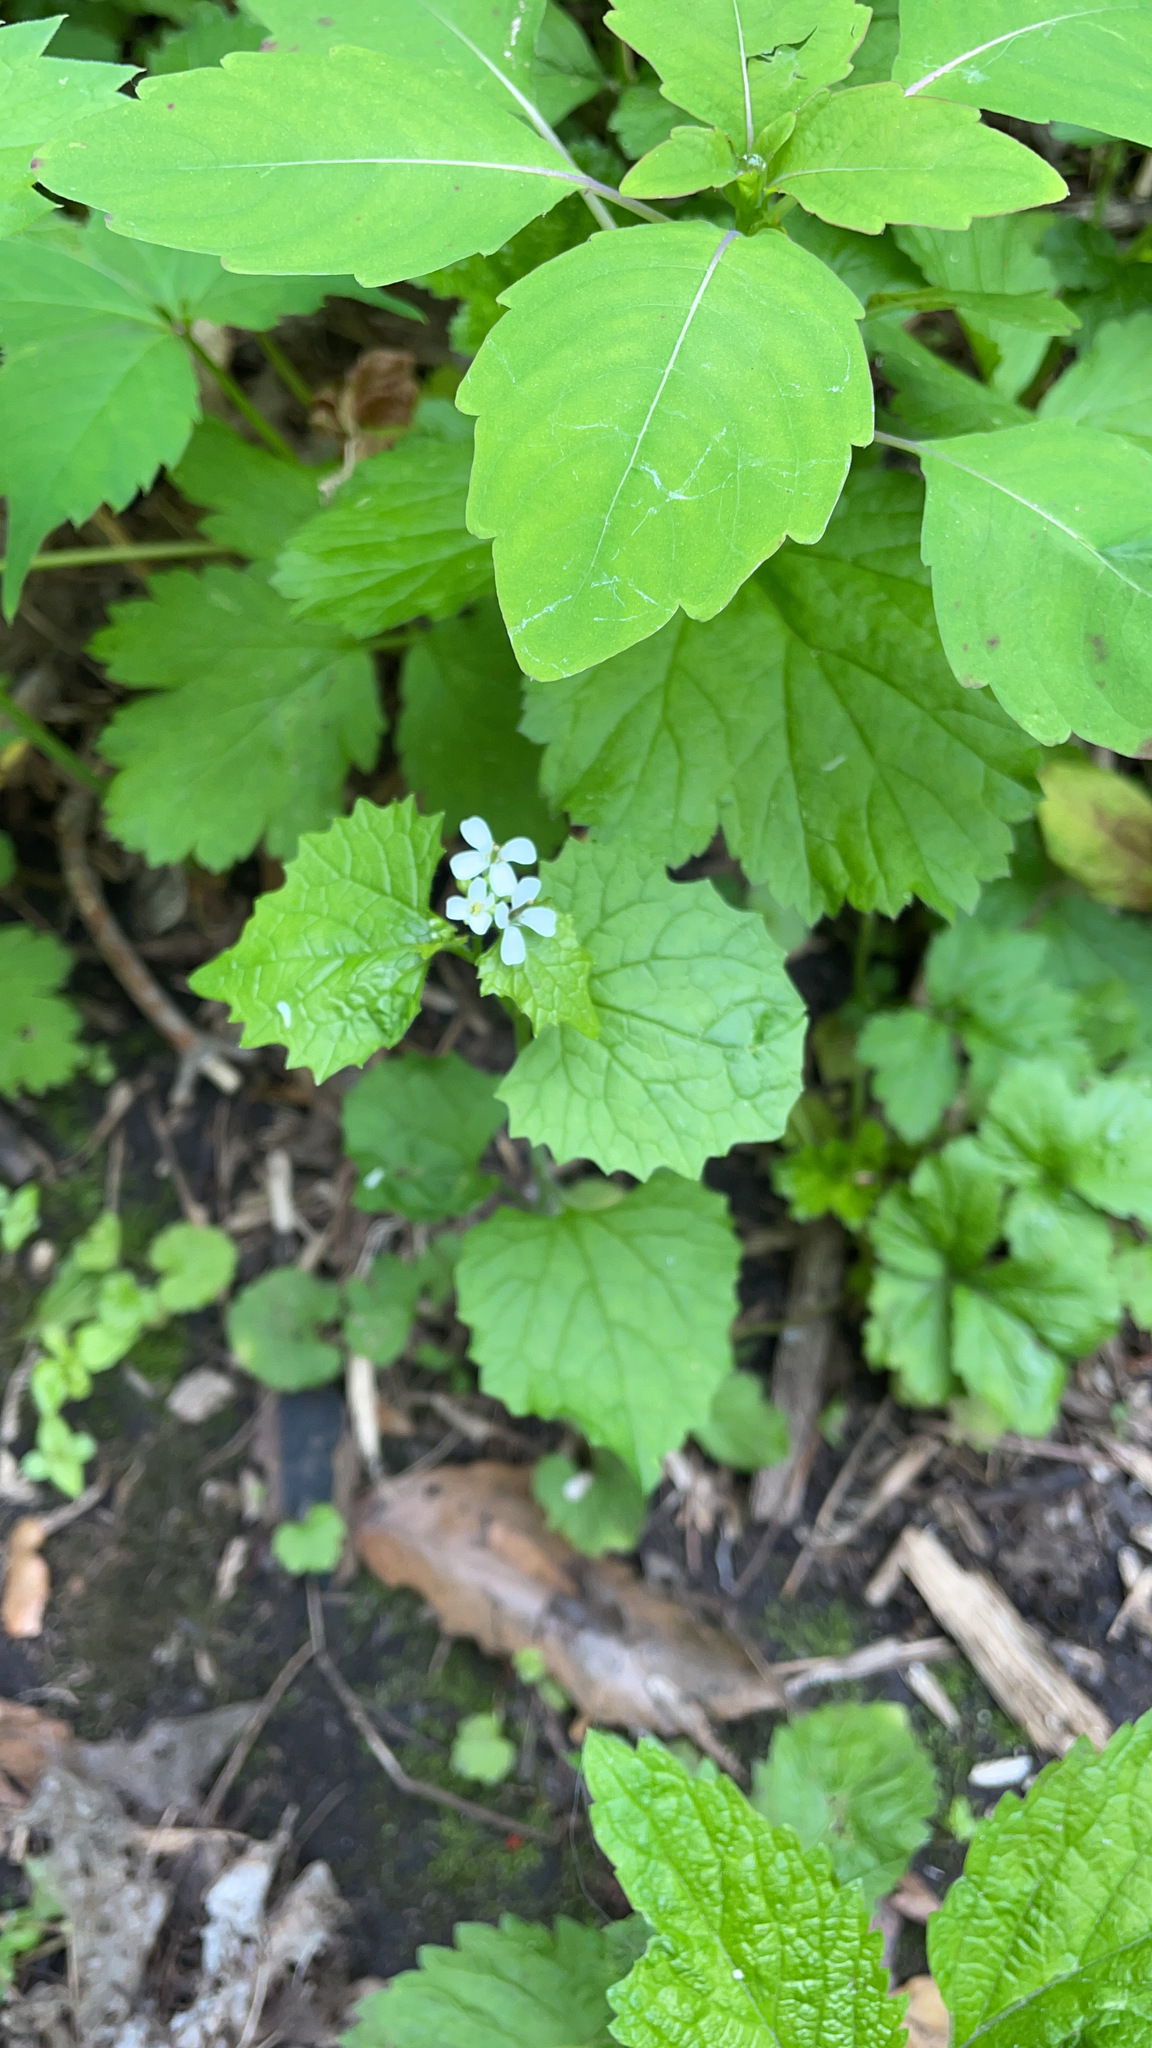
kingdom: Plantae
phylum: Tracheophyta
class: Magnoliopsida
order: Brassicales
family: Brassicaceae
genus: Alliaria
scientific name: Alliaria petiolata
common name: Garlic mustard
